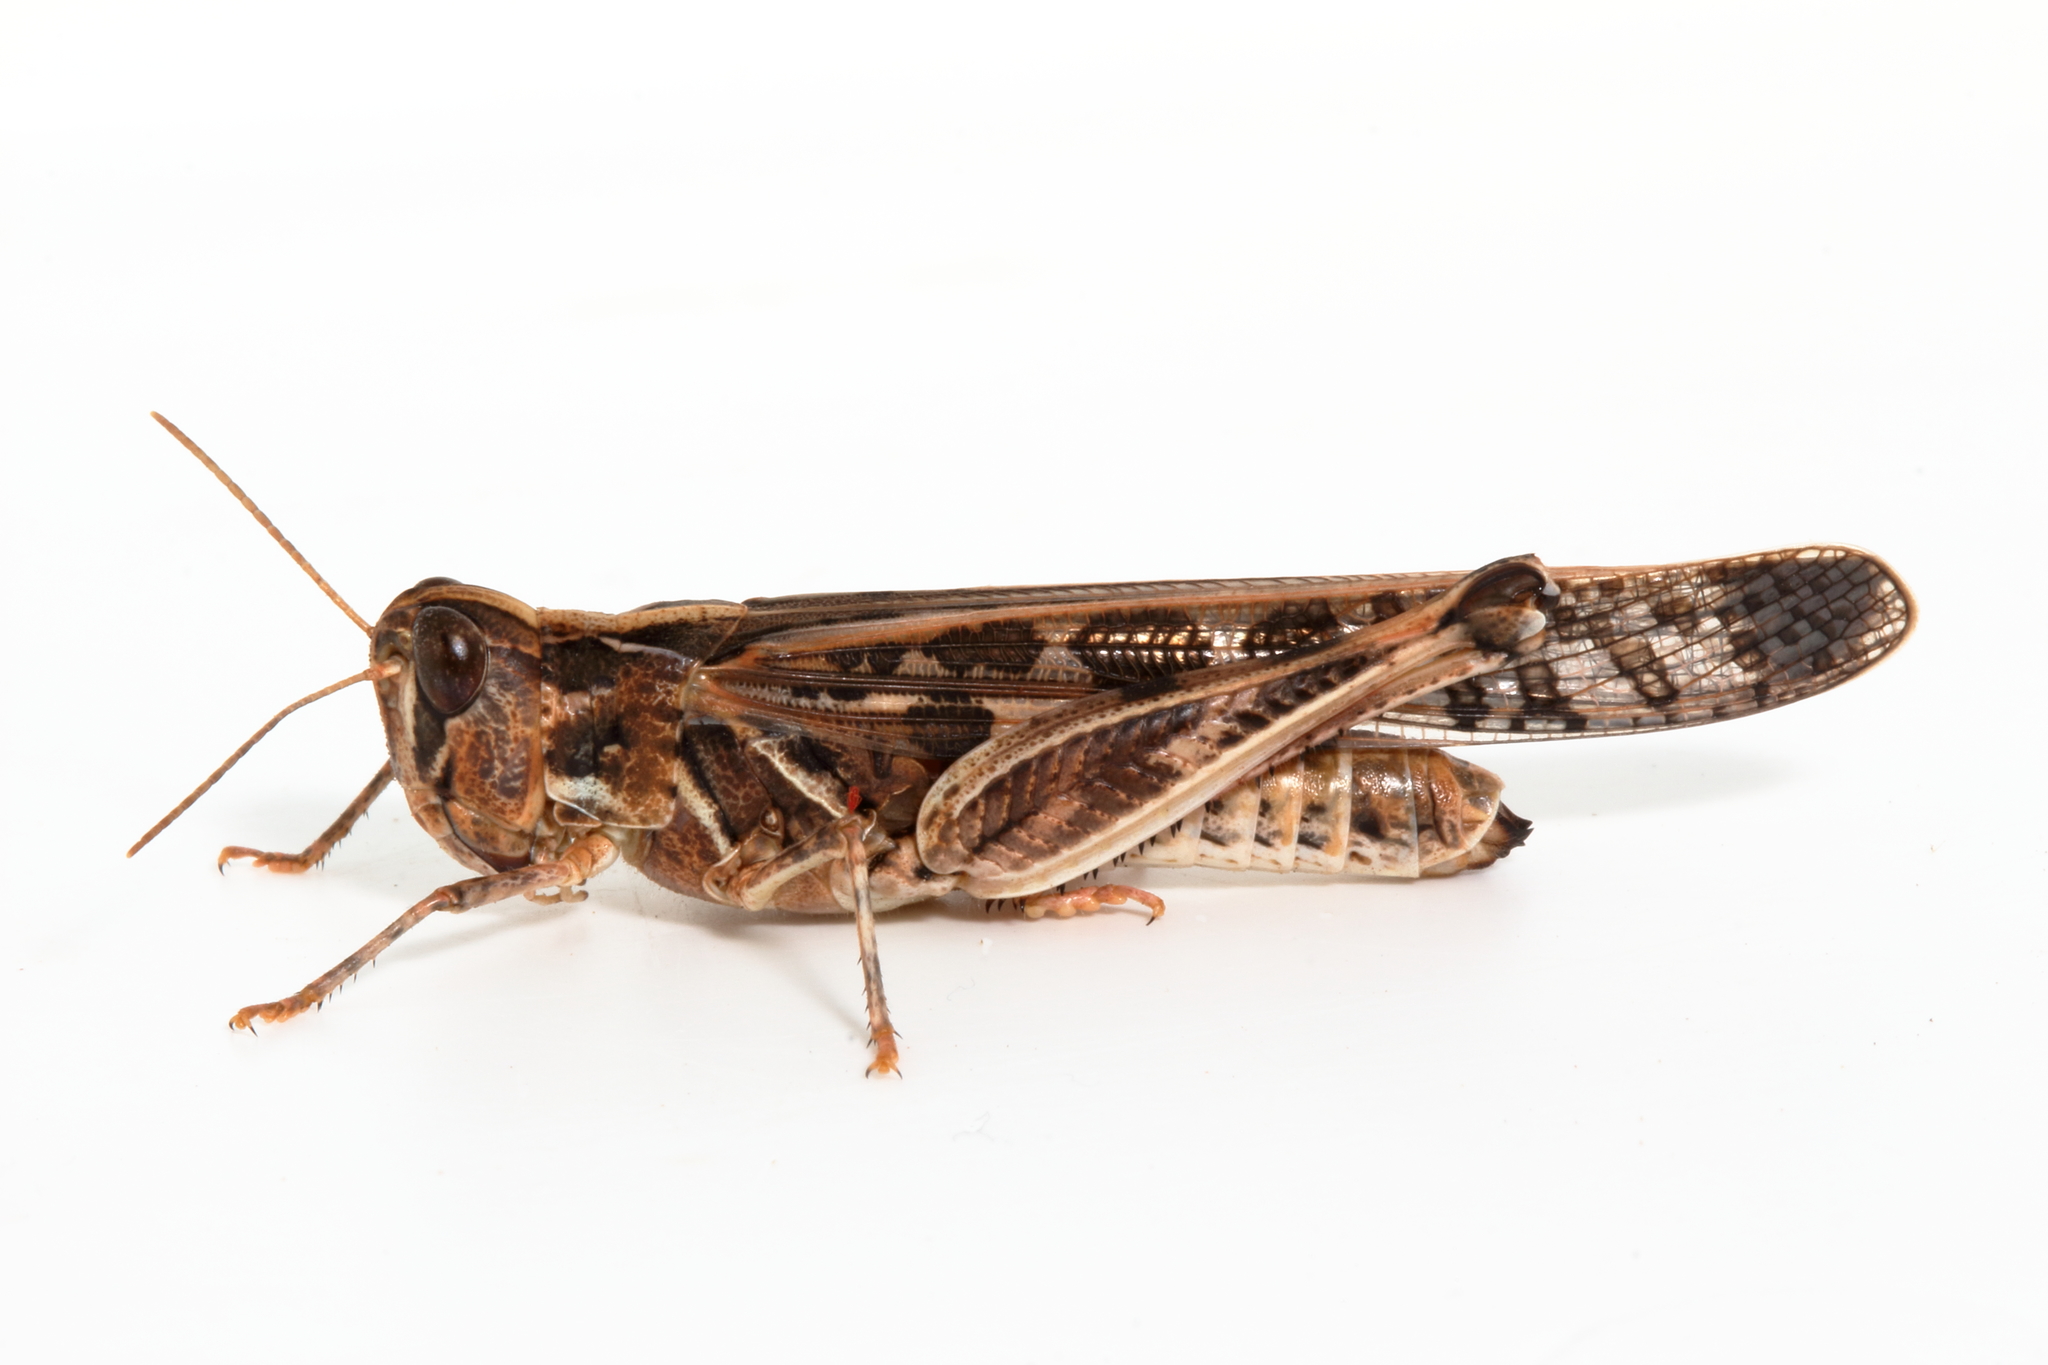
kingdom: Animalia
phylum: Arthropoda
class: Insecta
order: Orthoptera
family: Acrididae
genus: Chortoicetes
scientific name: Chortoicetes terminifera
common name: Australian plague locust
